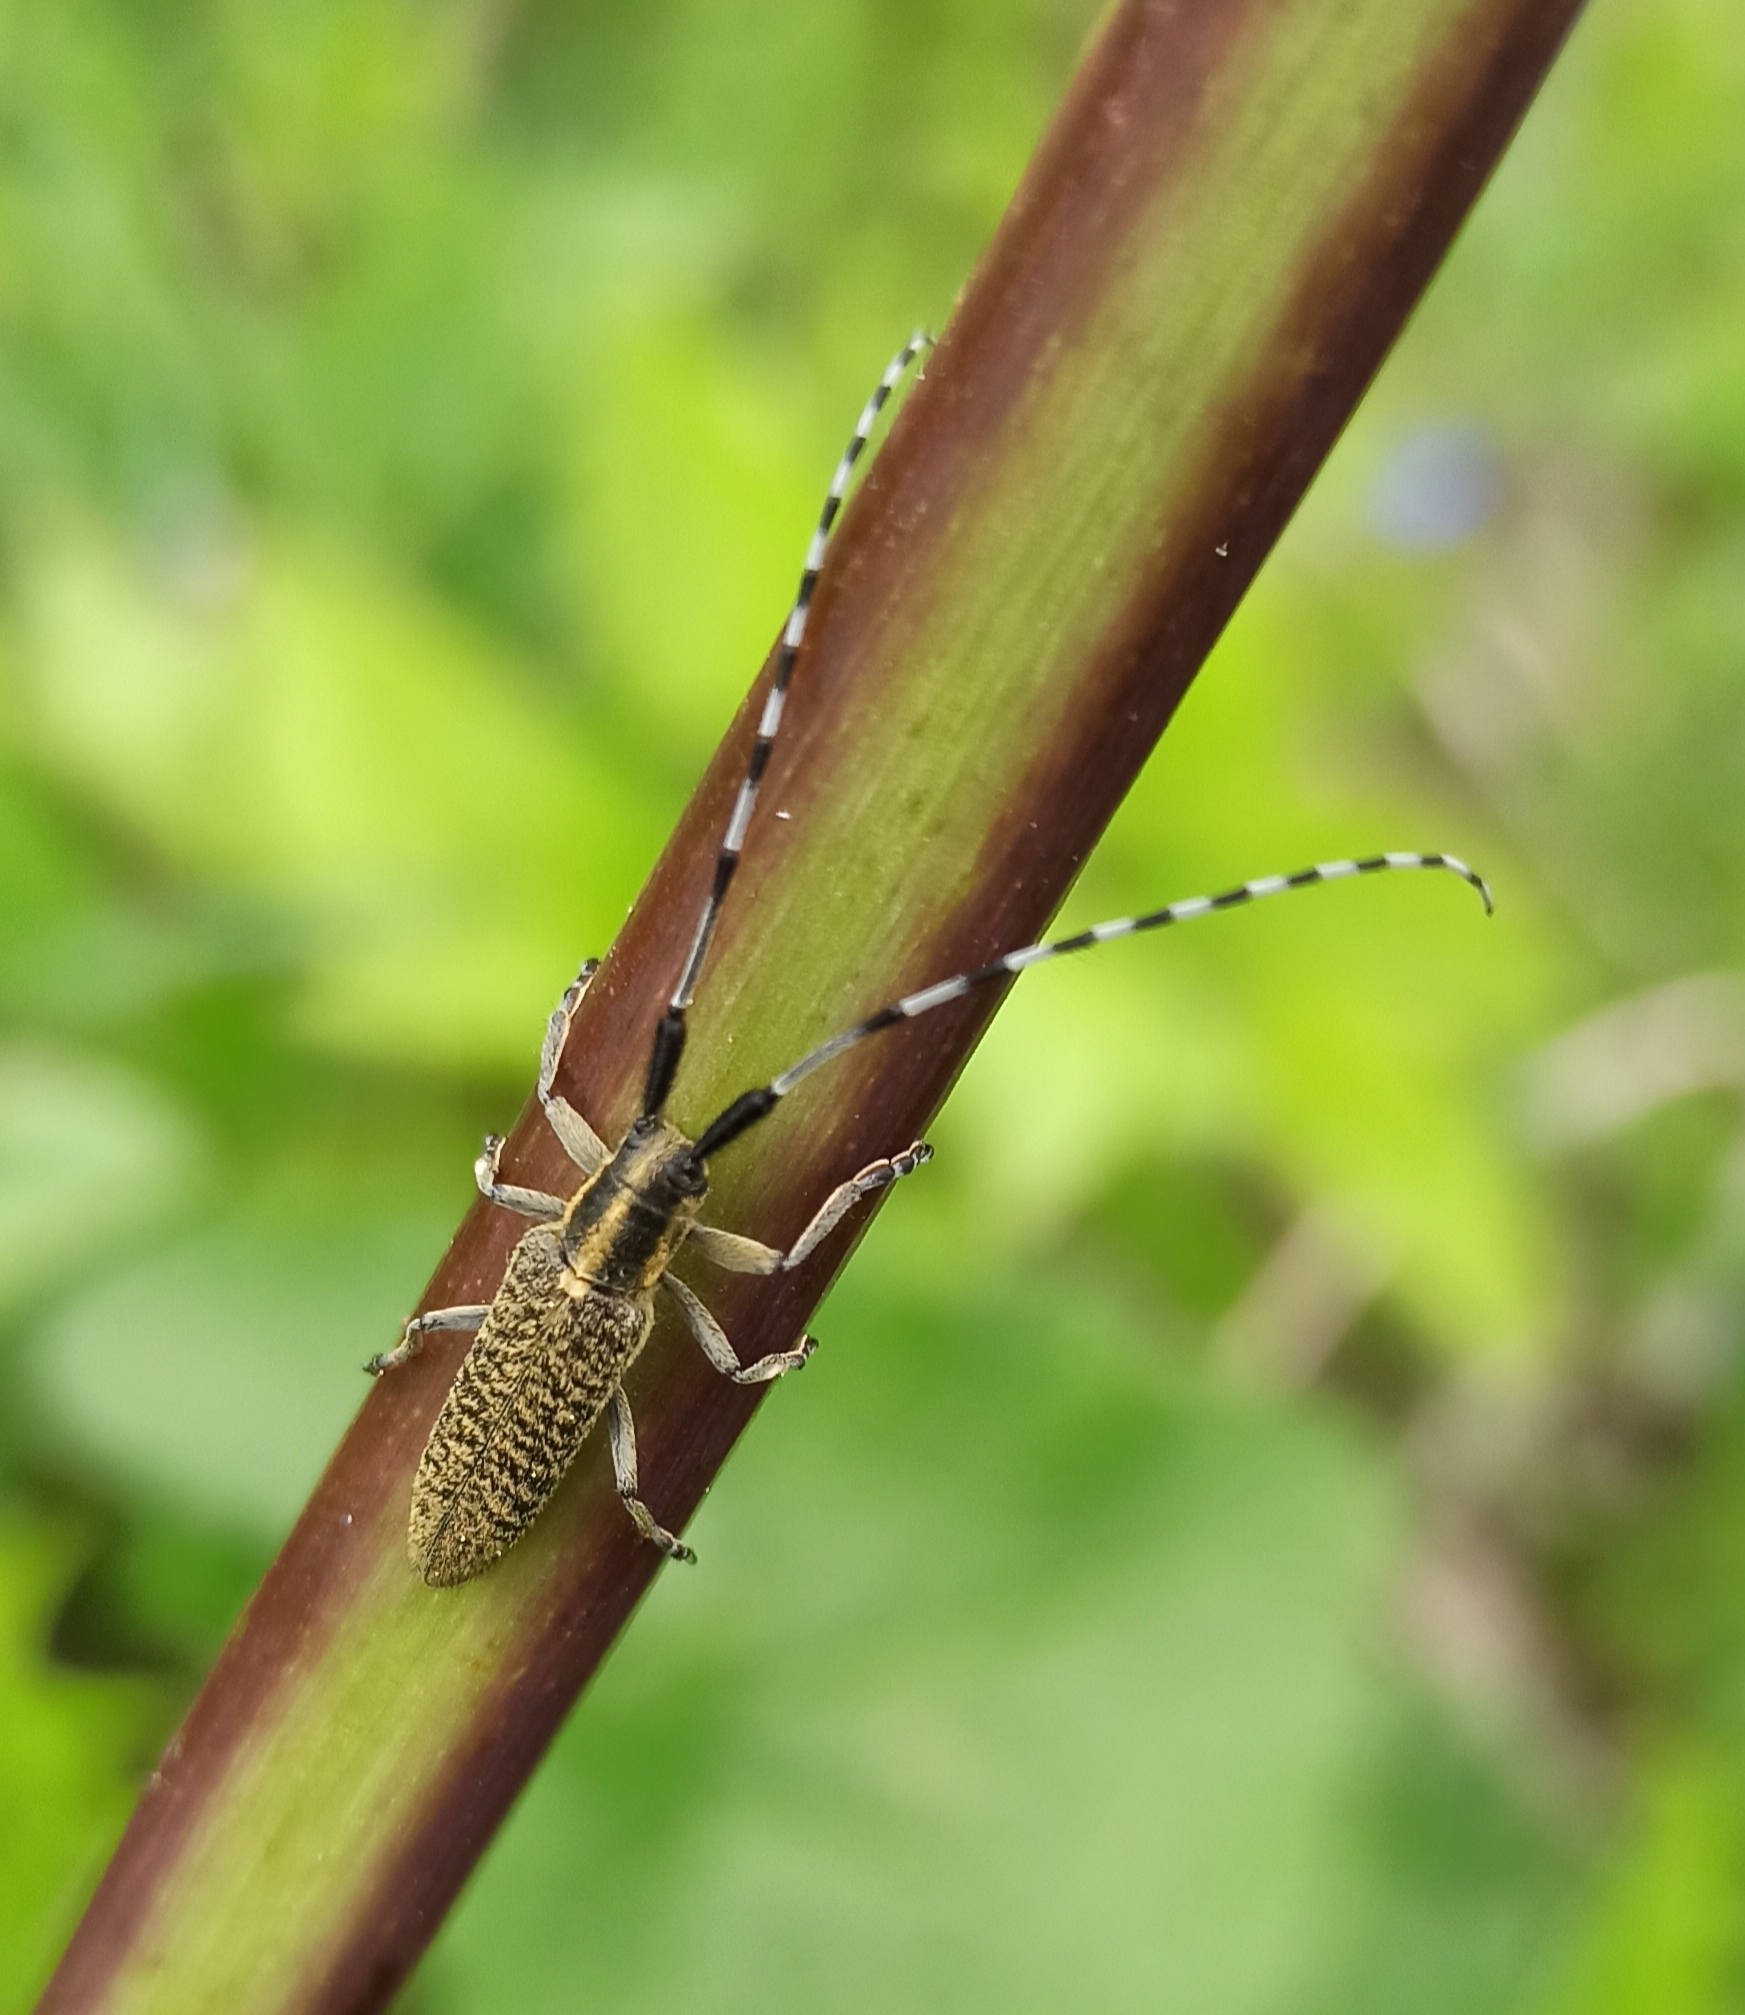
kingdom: Animalia
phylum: Arthropoda
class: Insecta
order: Coleoptera
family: Cerambycidae
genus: Agapanthia
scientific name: Agapanthia villosoviridescens
